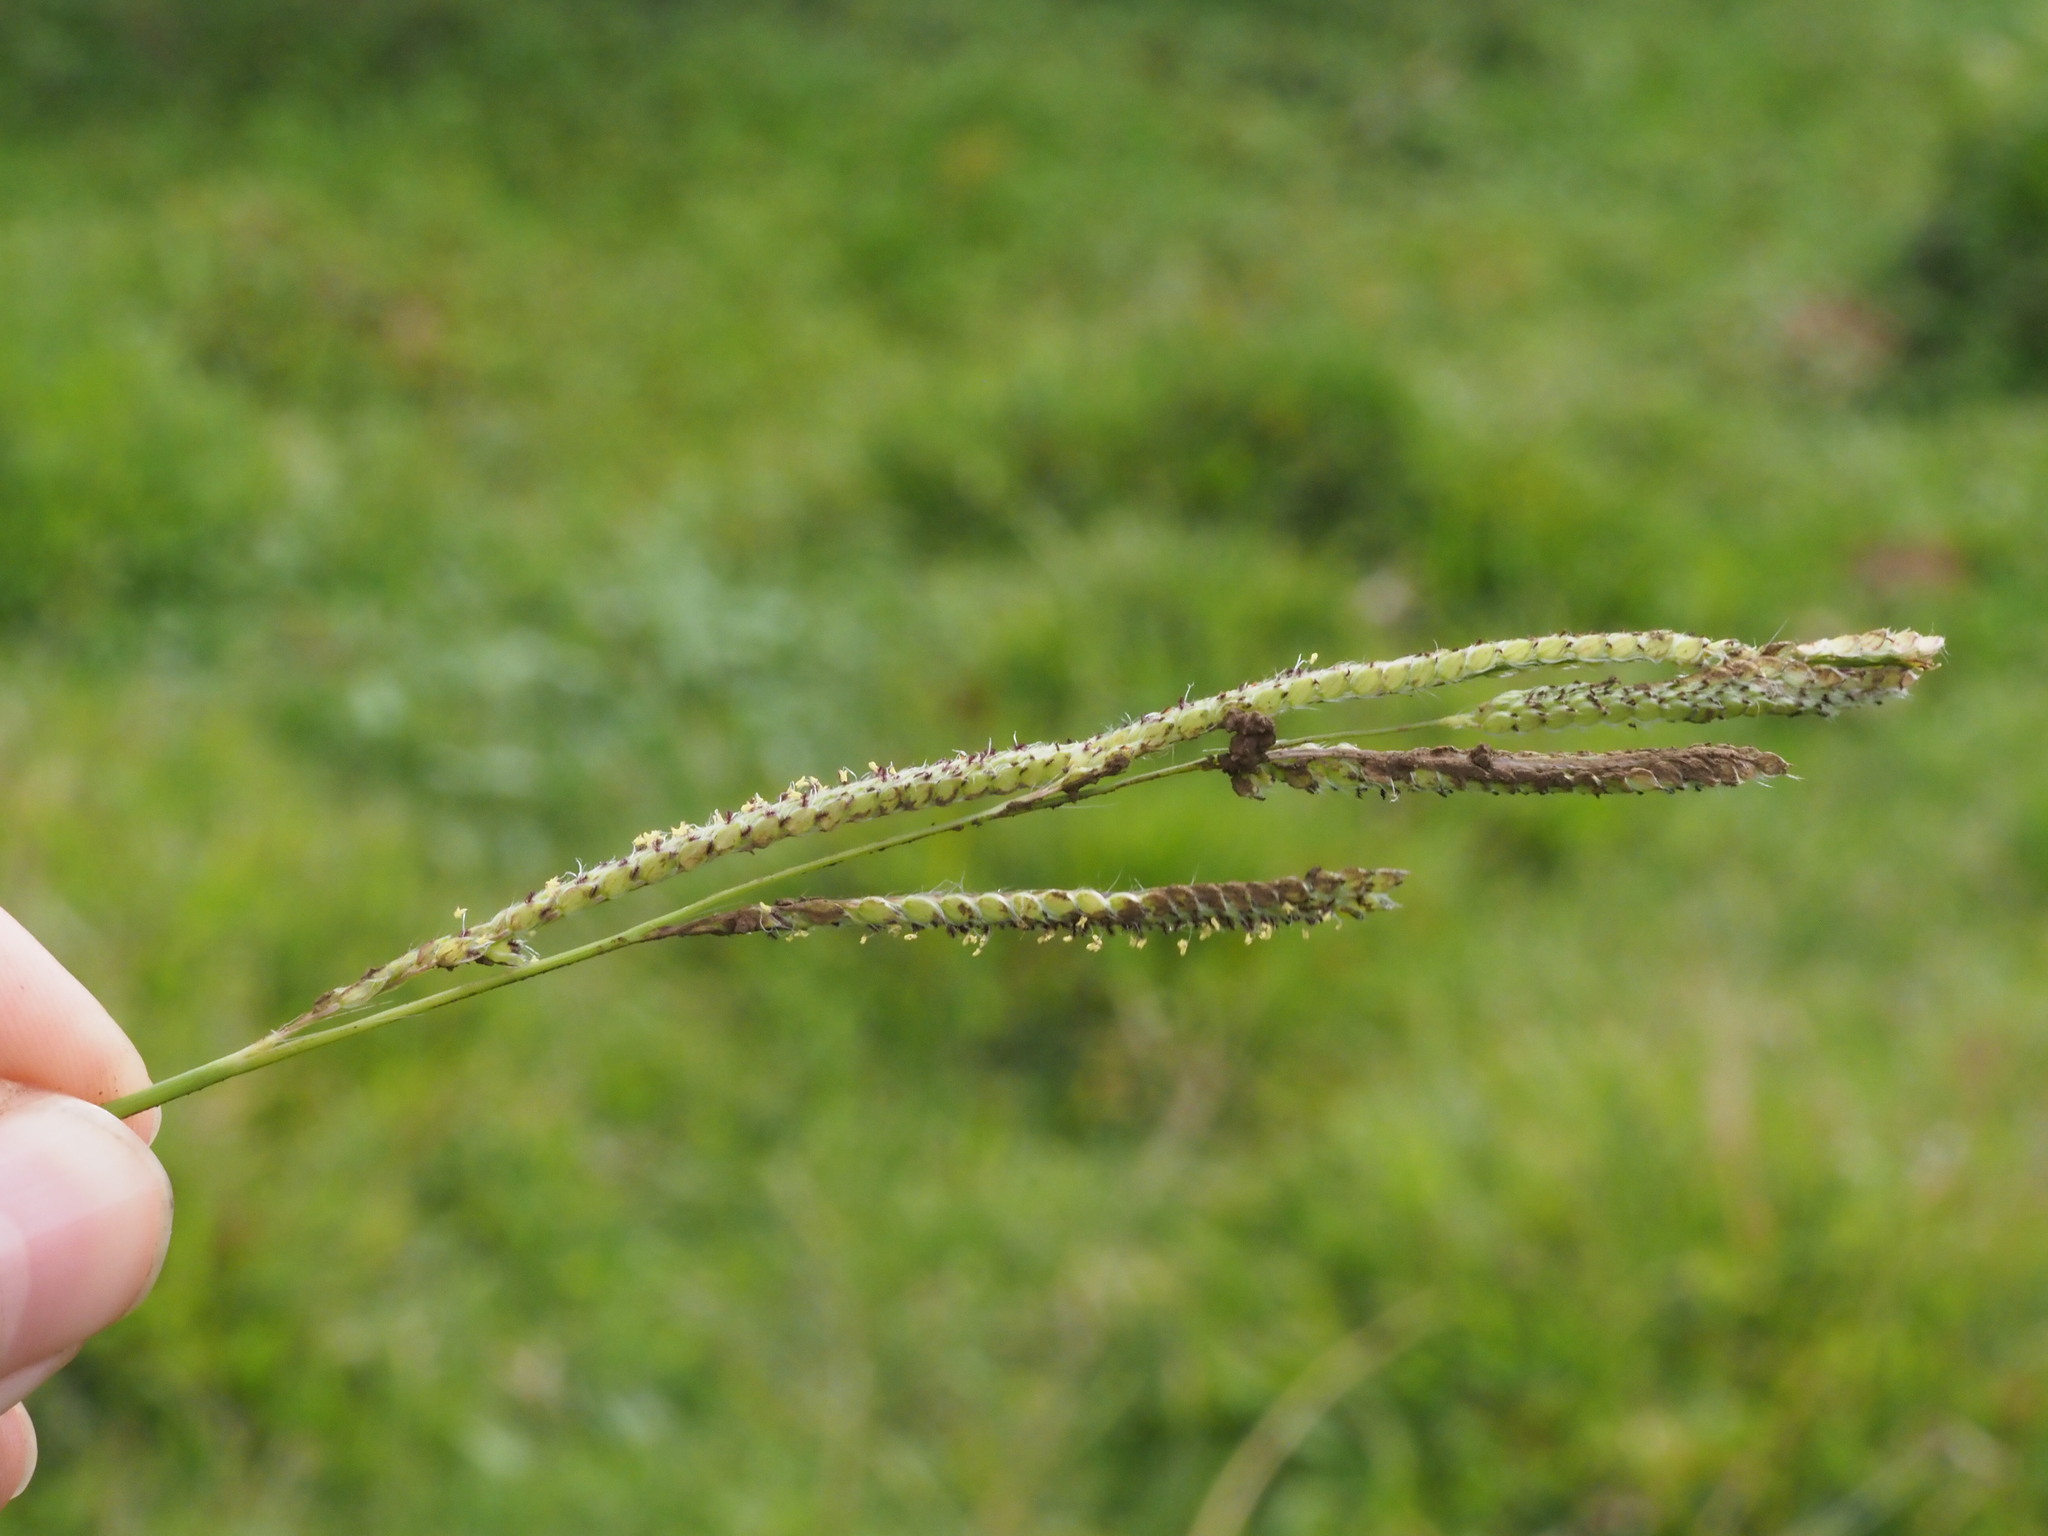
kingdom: Plantae
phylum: Tracheophyta
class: Liliopsida
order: Poales
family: Poaceae
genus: Paspalum
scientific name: Paspalum urvillei
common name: Vasey's grass
